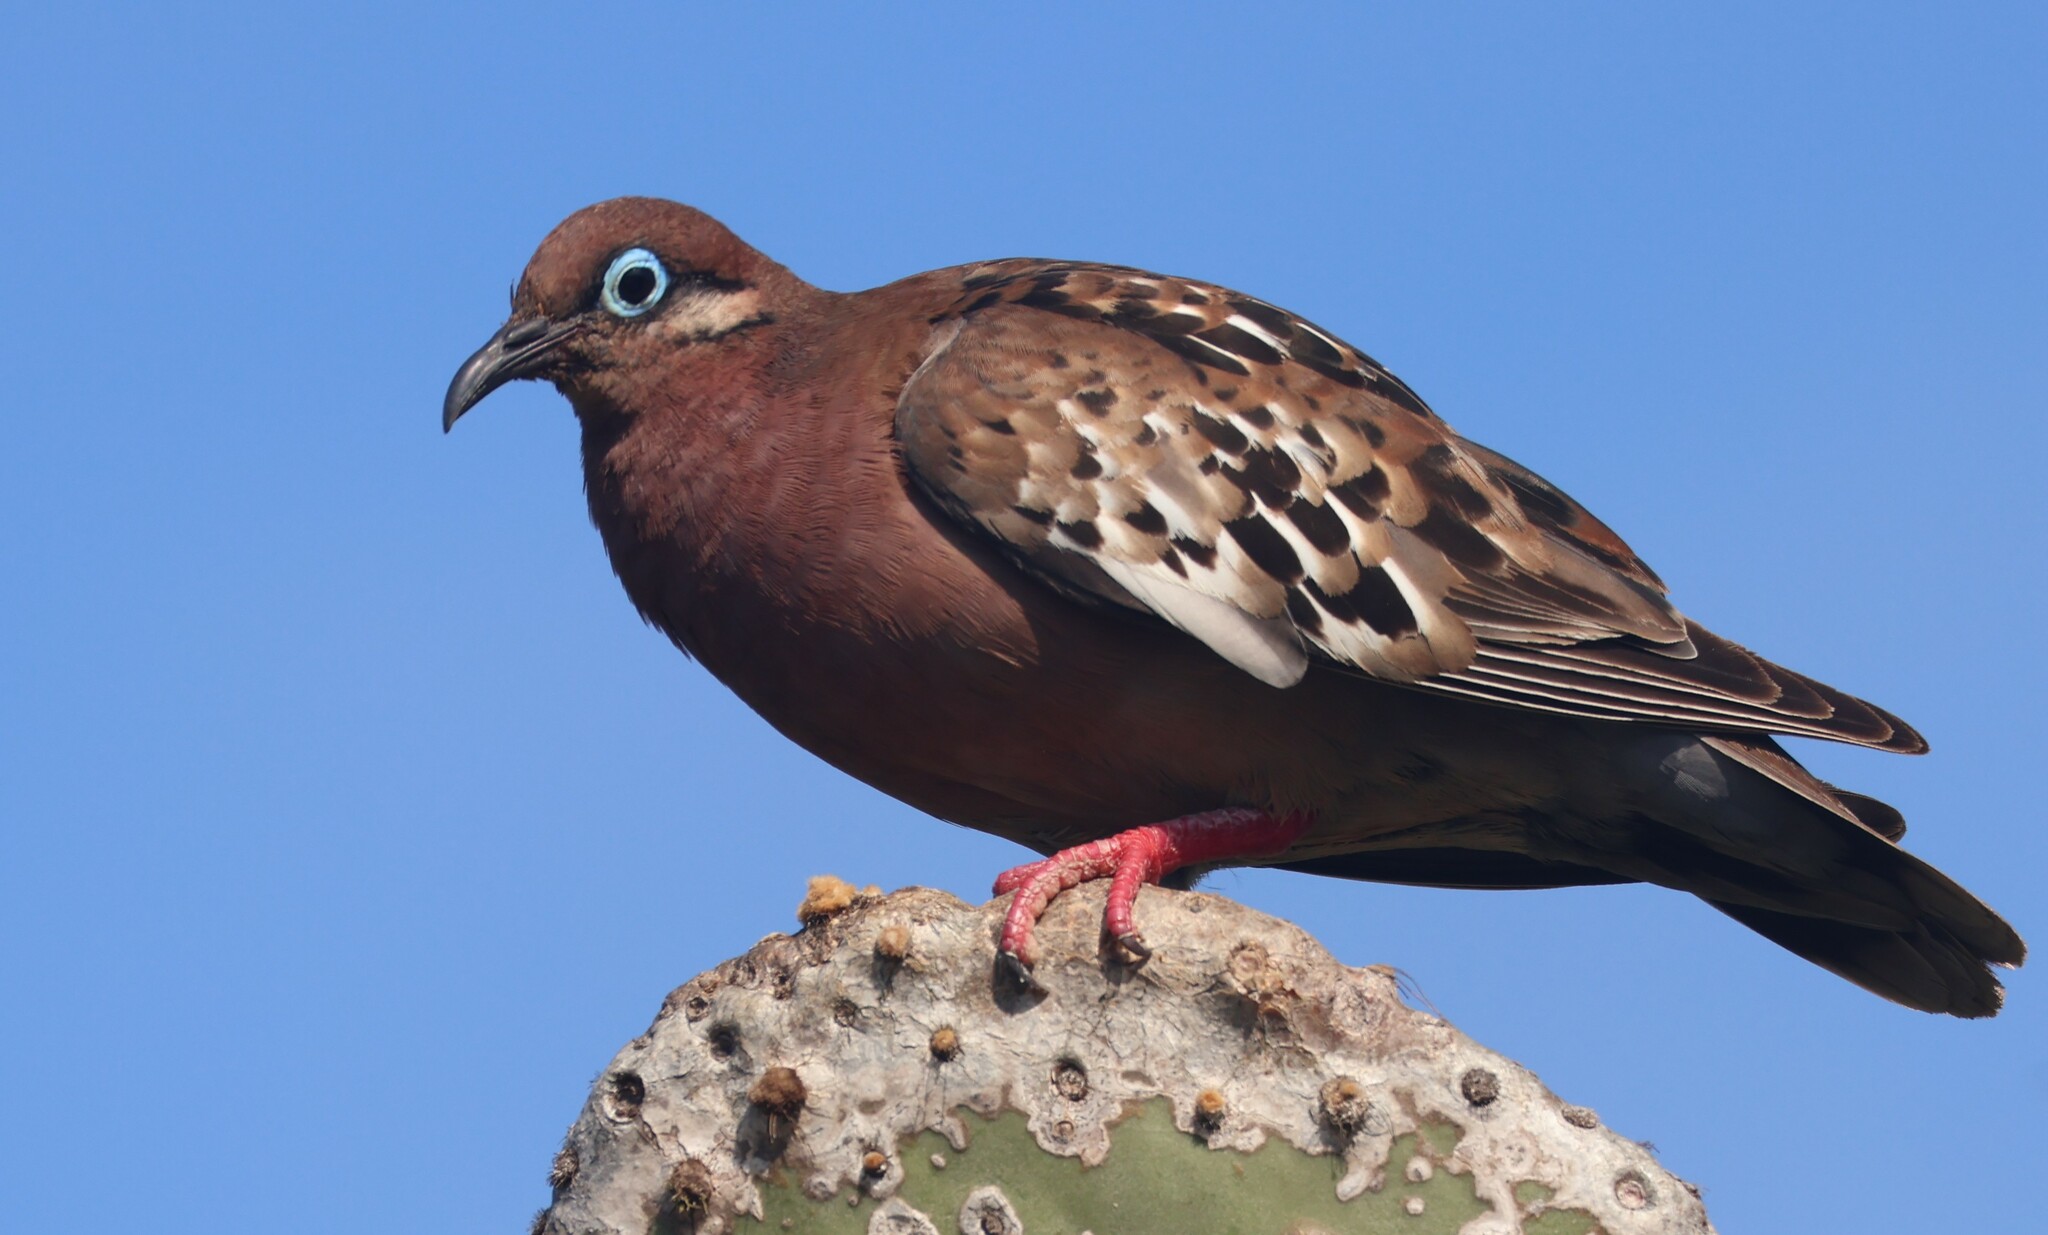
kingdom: Animalia
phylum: Chordata
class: Aves
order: Columbiformes
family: Columbidae
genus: Zenaida
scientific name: Zenaida galapagoensis
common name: Galapagos dove
